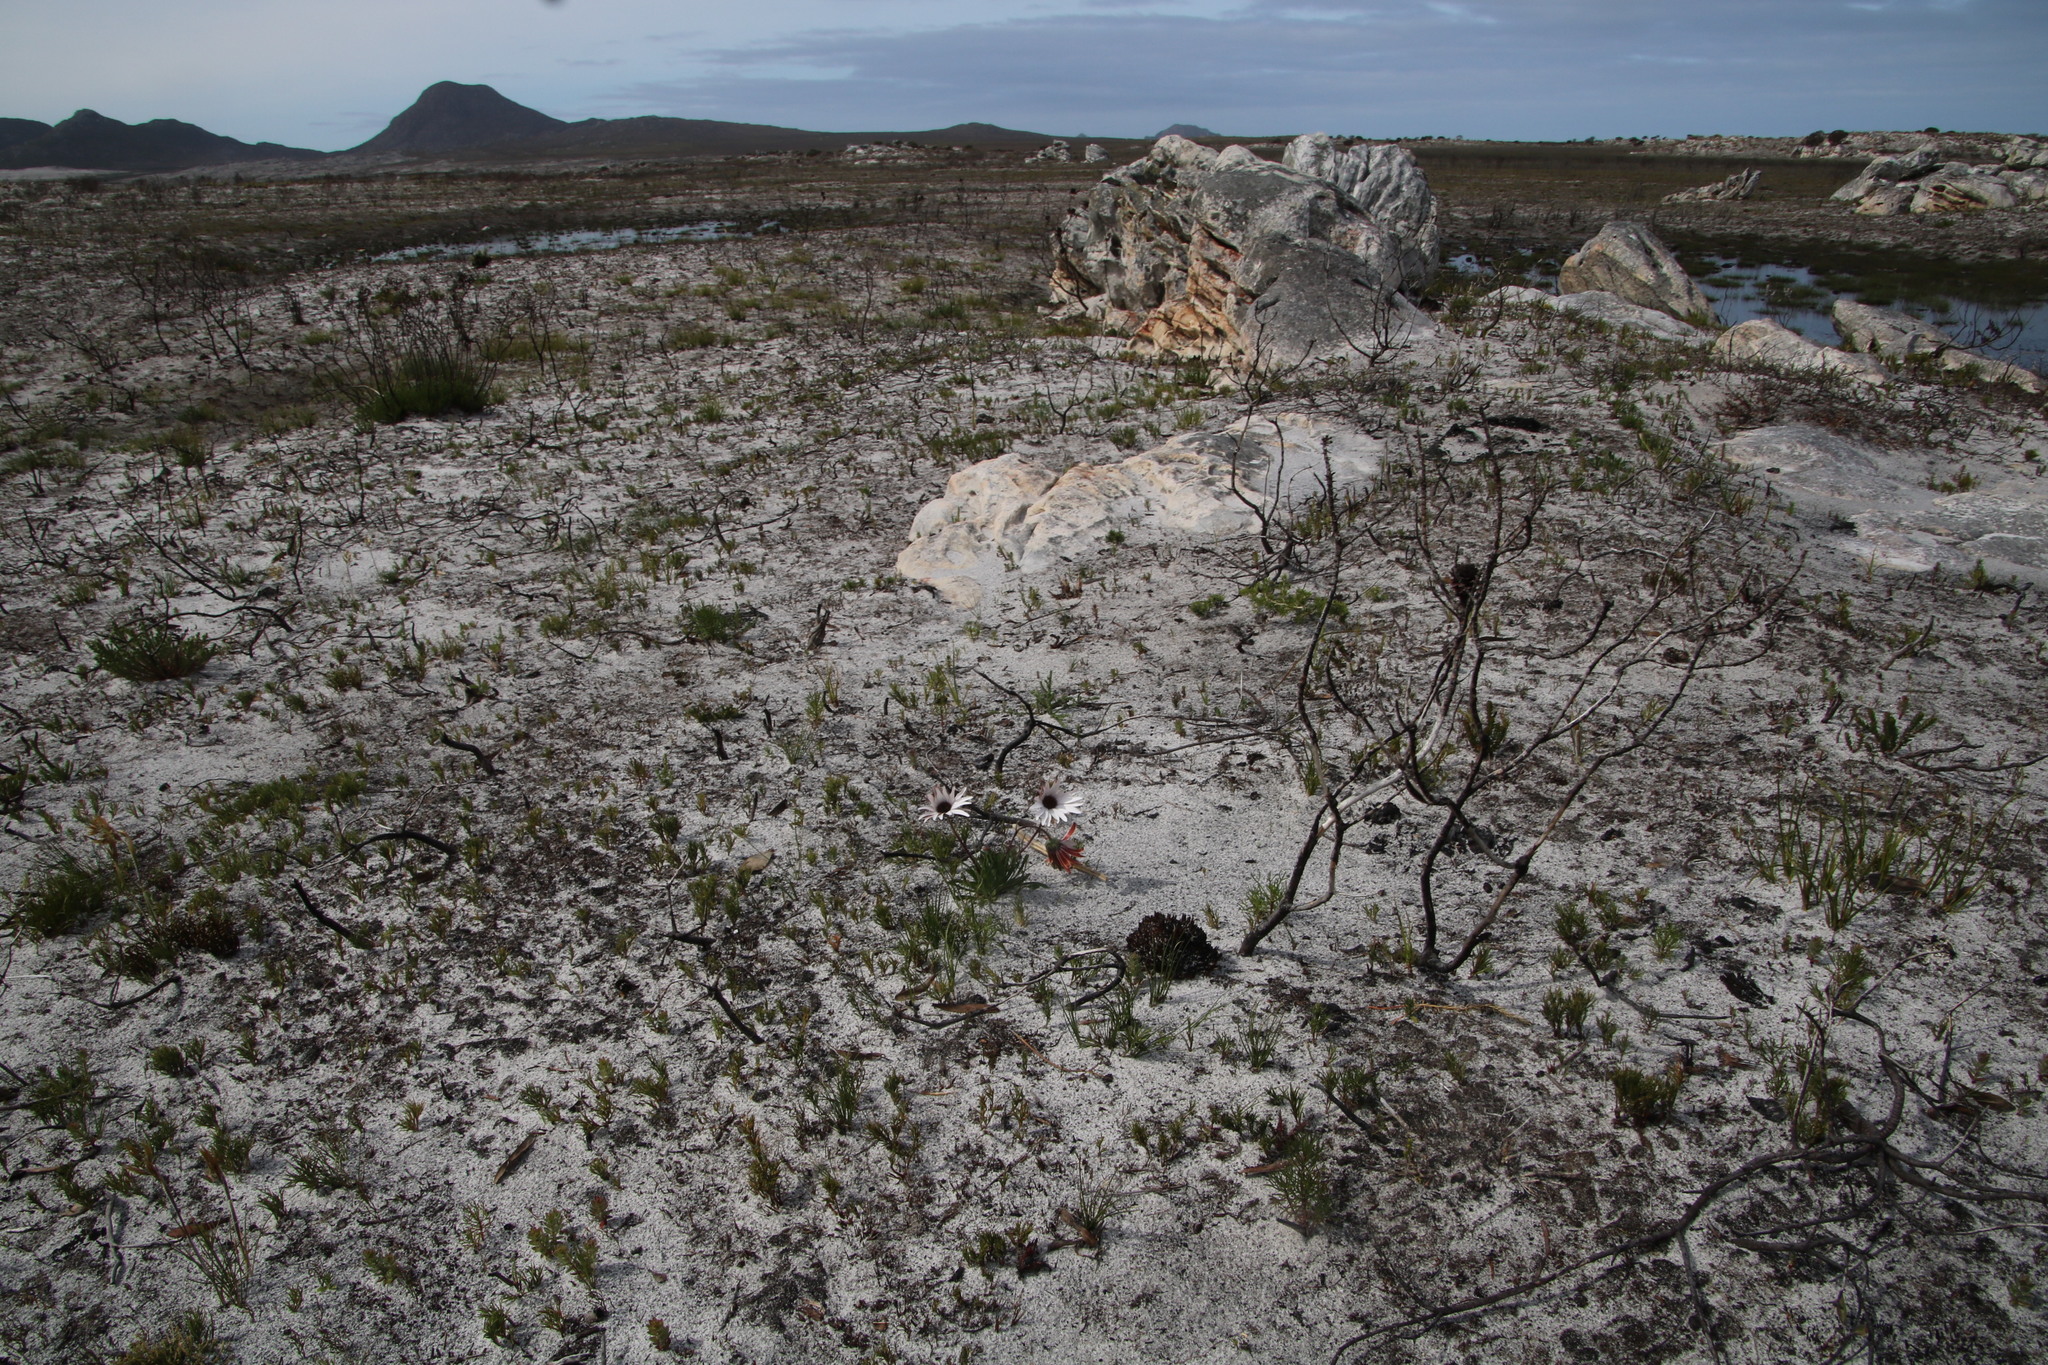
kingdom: Plantae
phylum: Tracheophyta
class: Magnoliopsida
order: Asterales
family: Asteraceae
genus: Dimorphotheca
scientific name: Dimorphotheca nudicaulis
